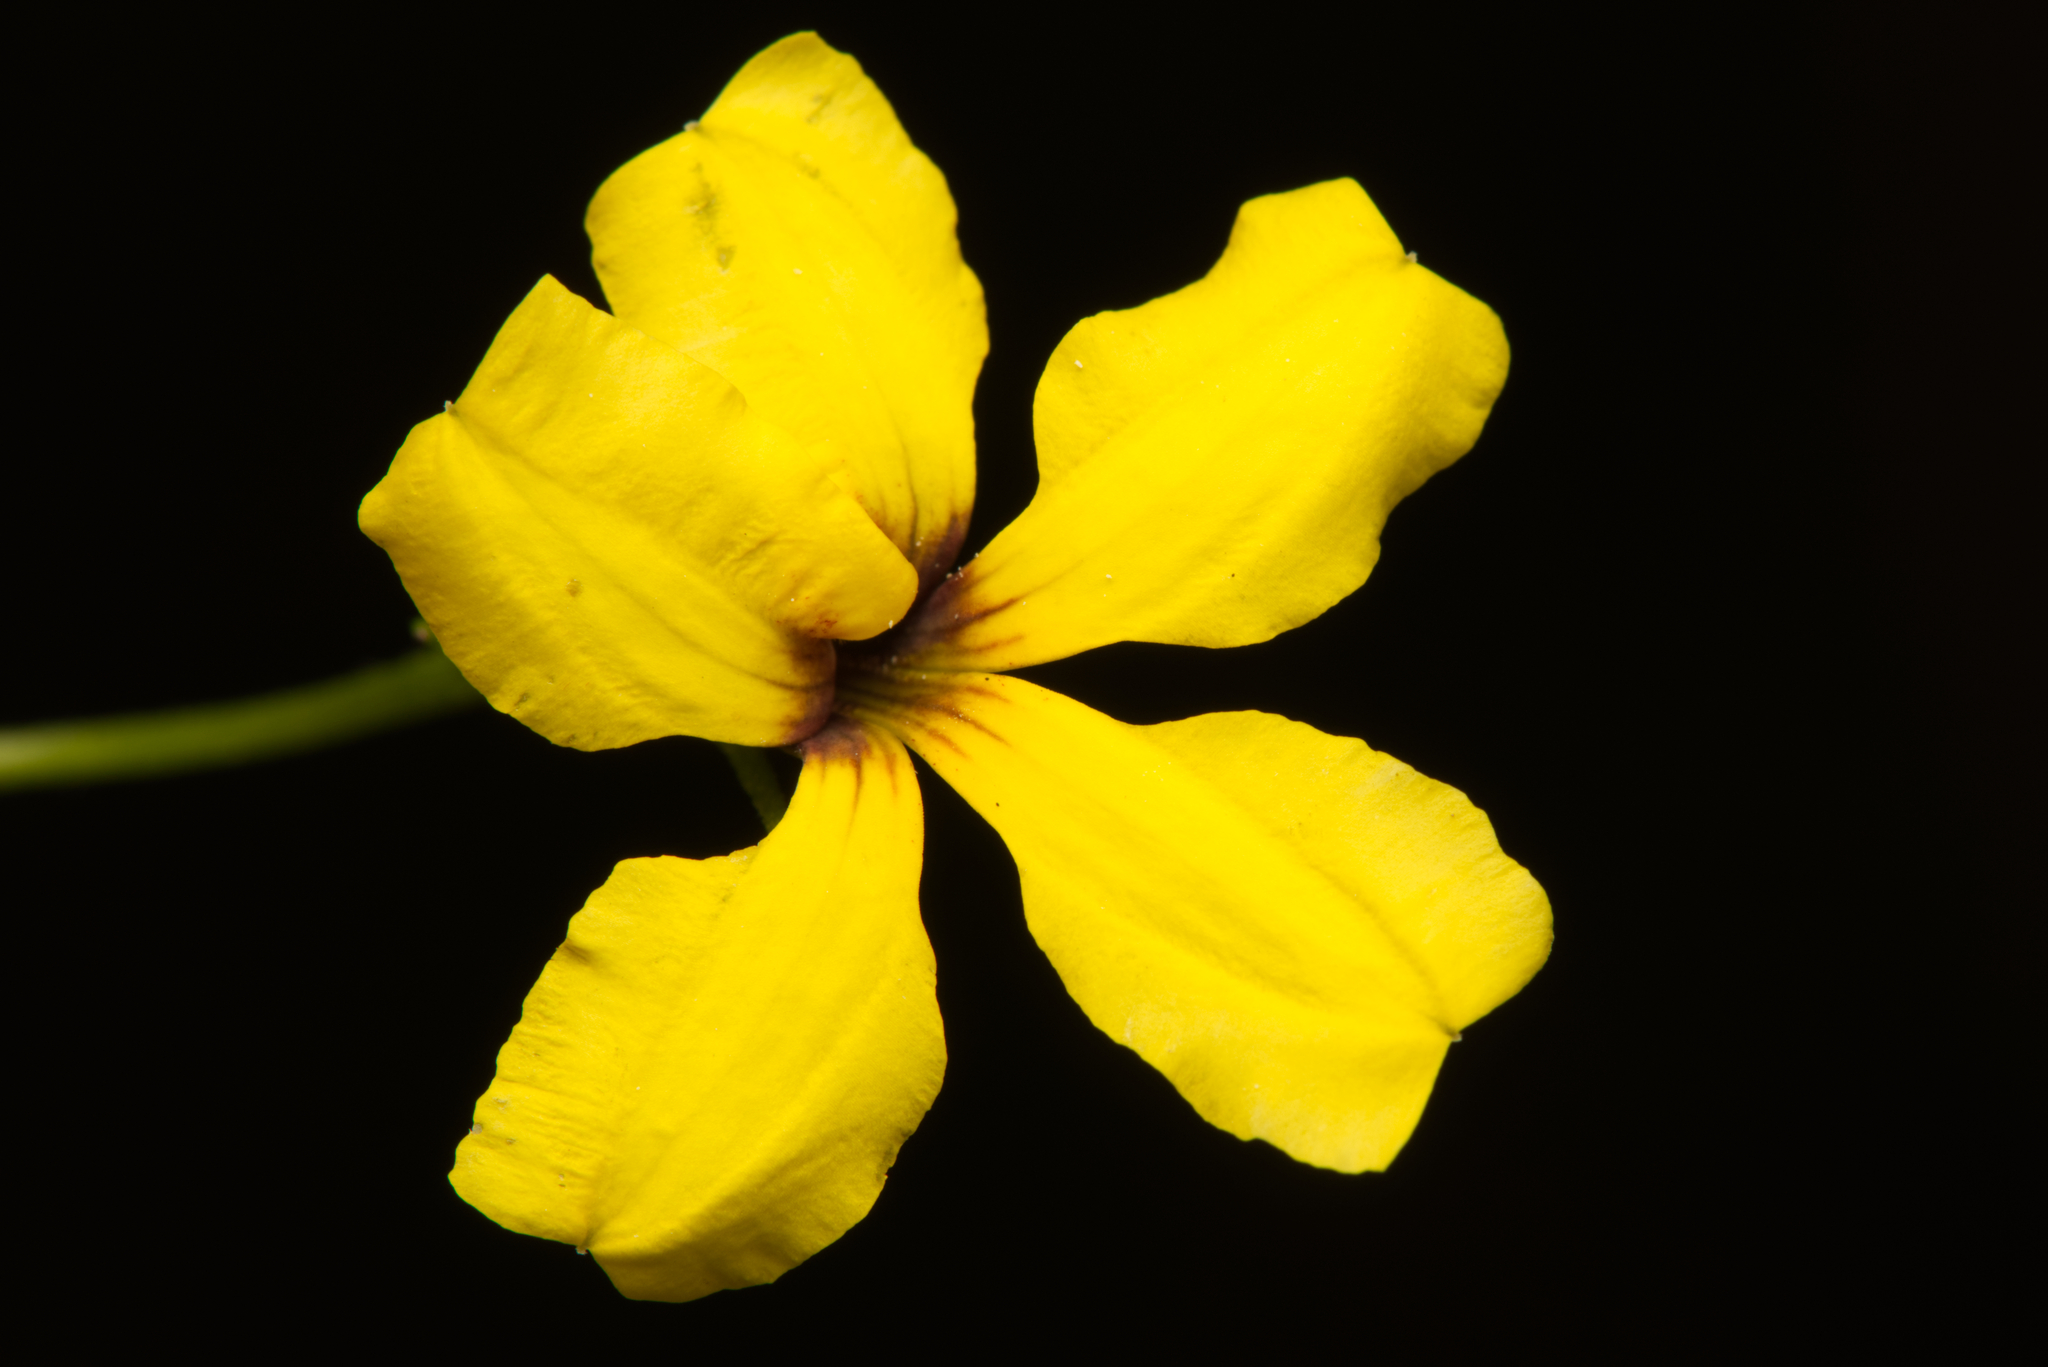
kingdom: Plantae
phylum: Tracheophyta
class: Magnoliopsida
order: Asterales
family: Goodeniaceae
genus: Goodenia
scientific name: Goodenia rotundifolia
